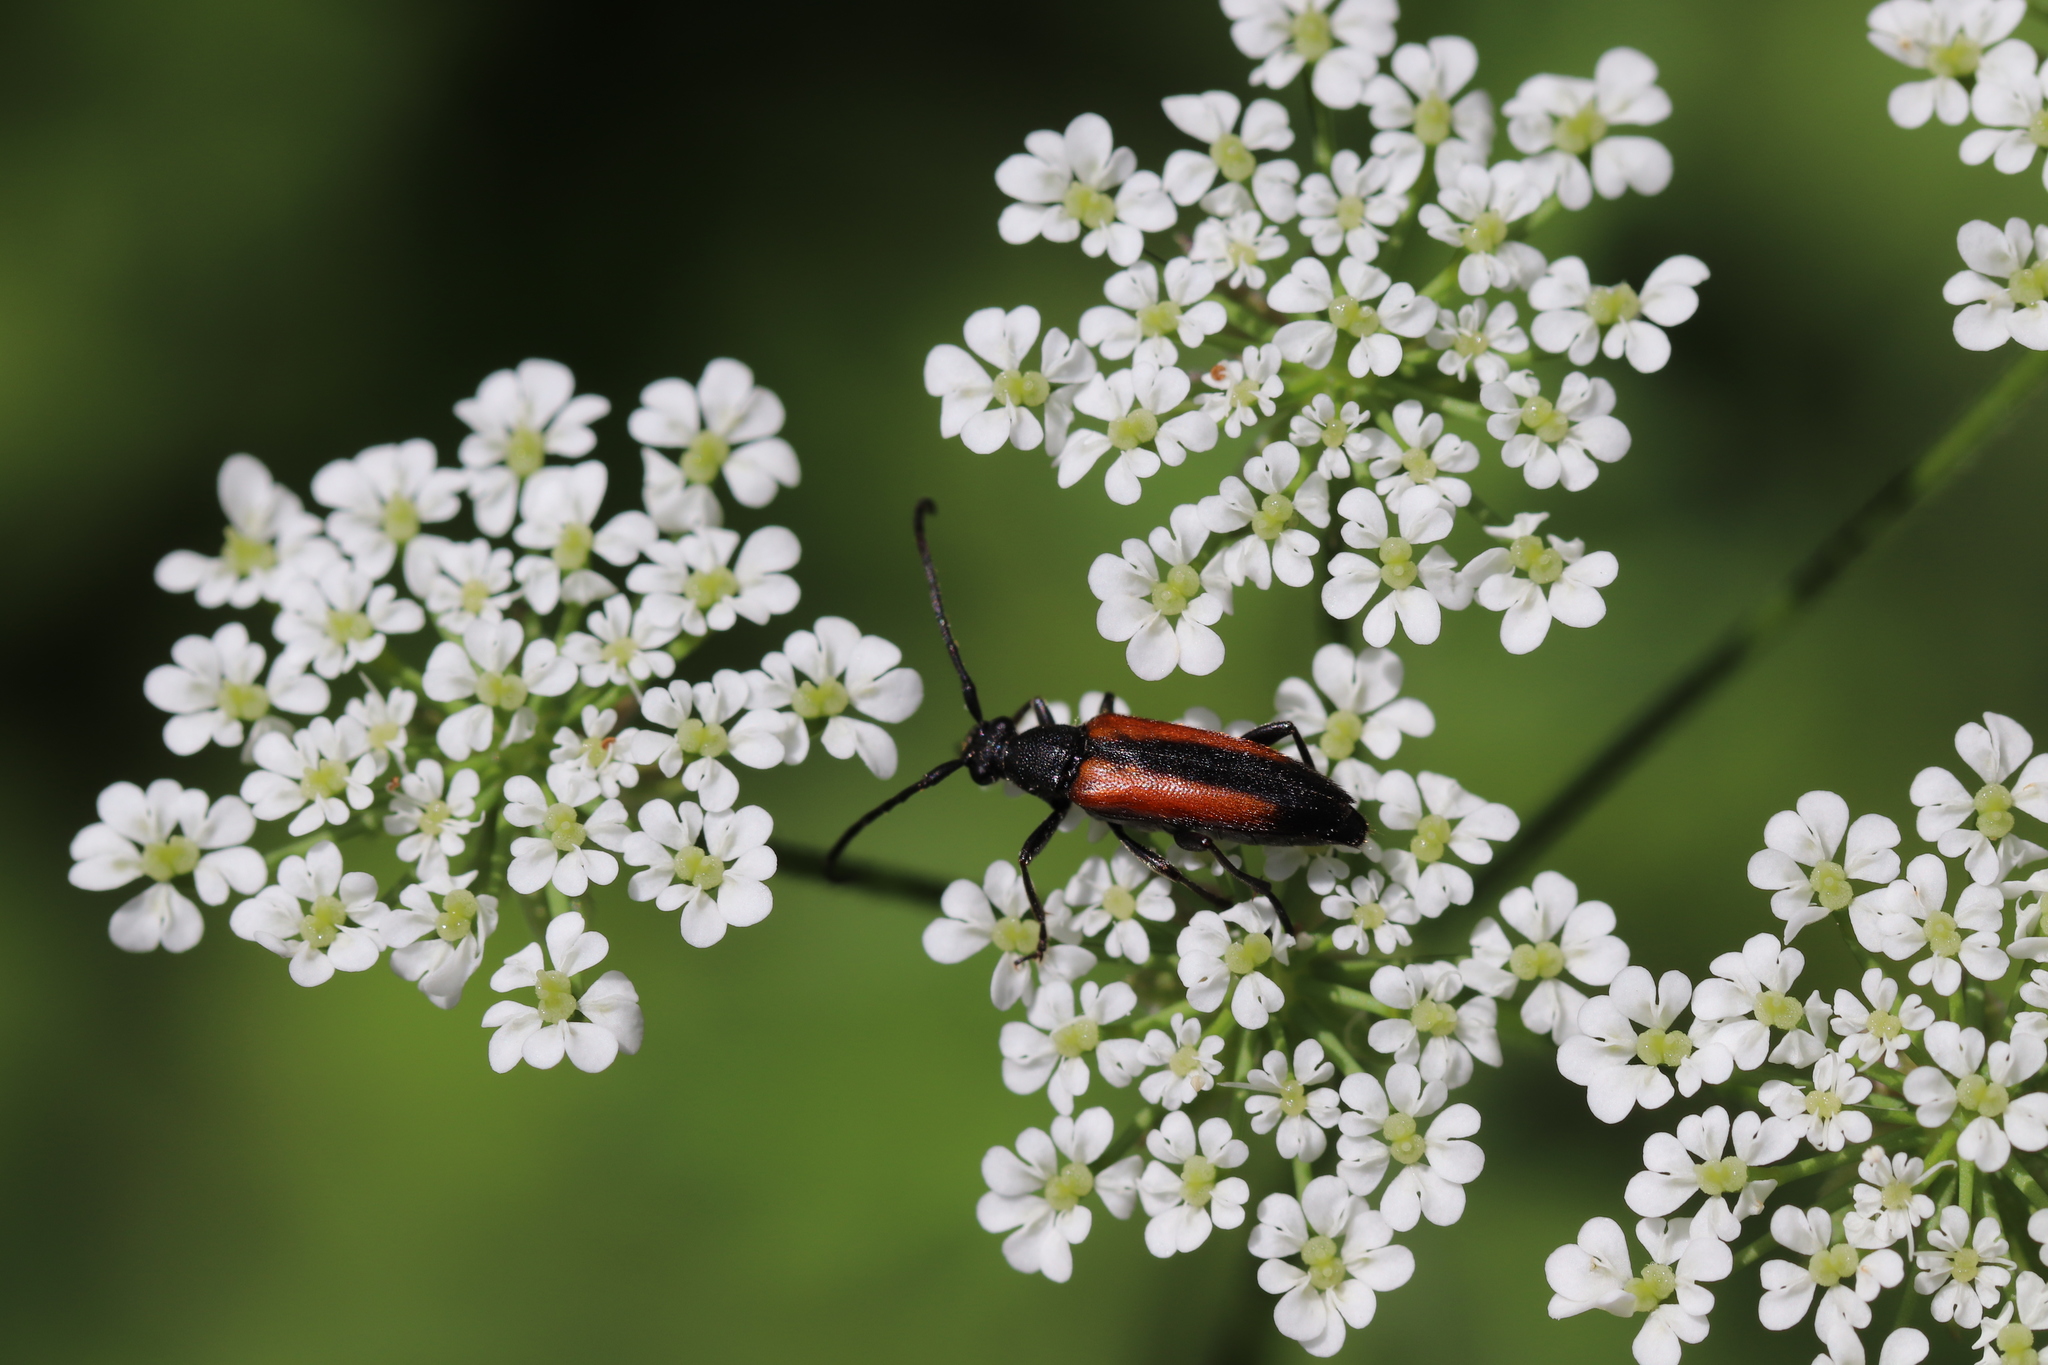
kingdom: Animalia
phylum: Arthropoda
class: Insecta
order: Coleoptera
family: Cerambycidae
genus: Stenurella
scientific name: Stenurella melanura
